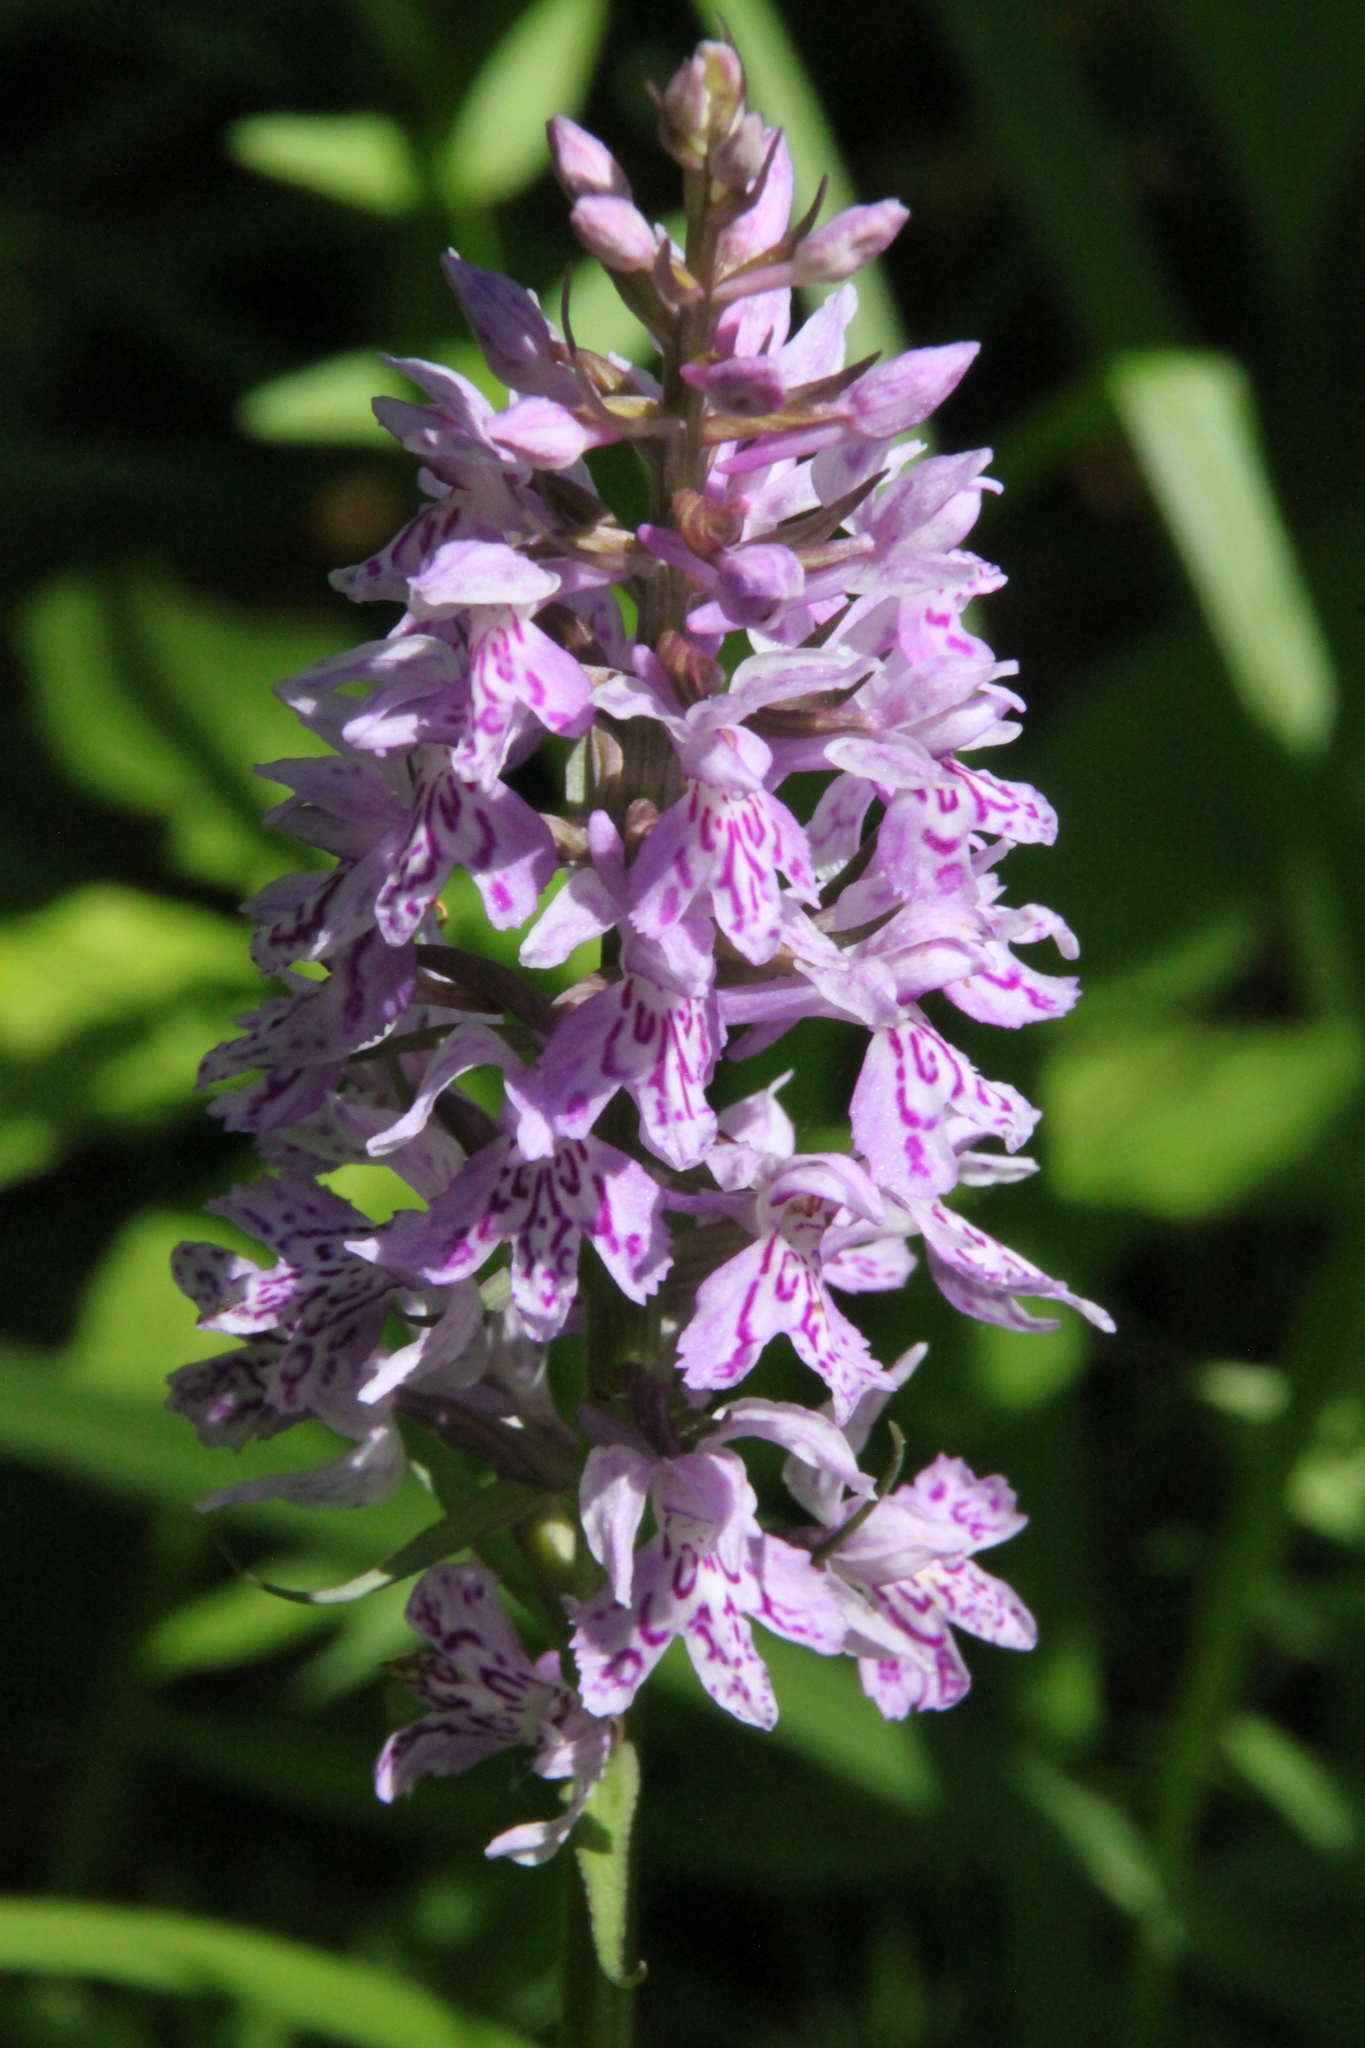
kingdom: Plantae
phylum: Tracheophyta
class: Liliopsida
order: Asparagales
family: Orchidaceae
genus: Dactylorhiza
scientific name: Dactylorhiza maculata
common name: Heath spotted-orchid
